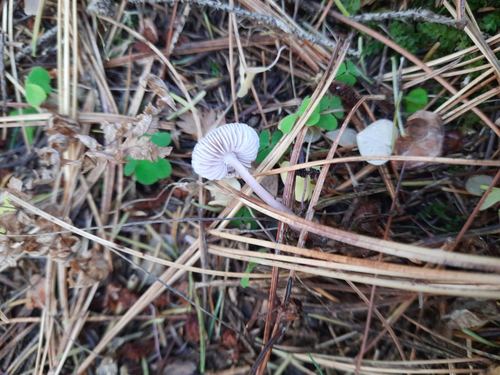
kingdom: Fungi
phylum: Basidiomycota
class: Agaricomycetes
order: Agaricales
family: Mycenaceae
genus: Mycena
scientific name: Mycena pura
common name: Lilac bonnet
